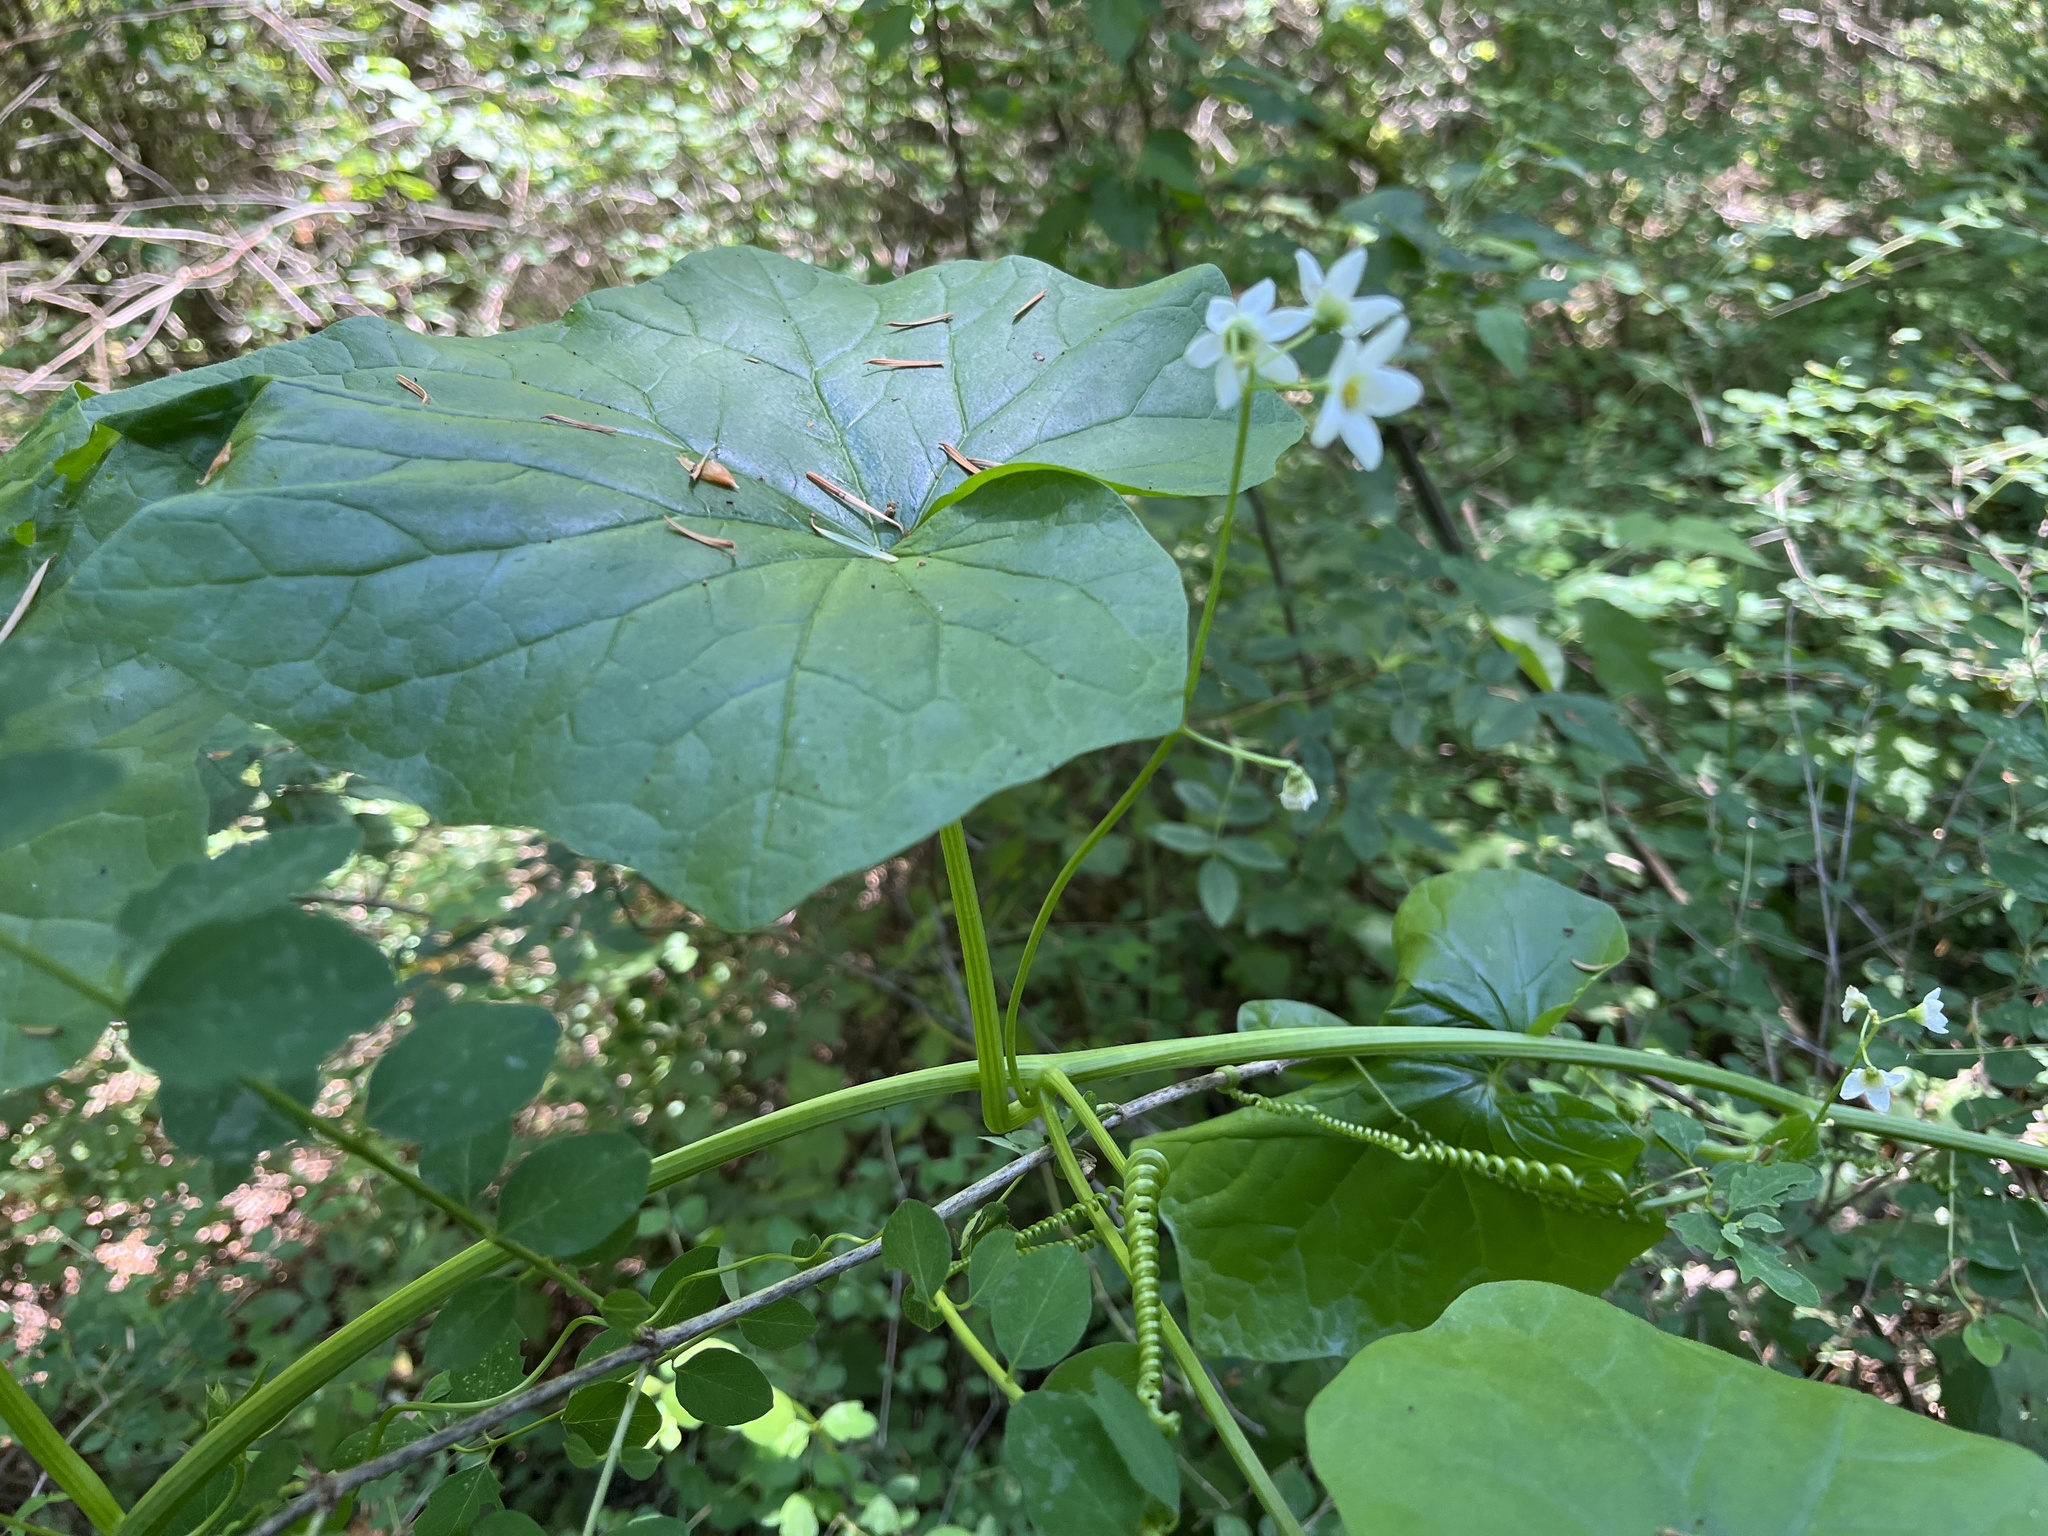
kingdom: Plantae
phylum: Tracheophyta
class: Magnoliopsida
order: Cucurbitales
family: Cucurbitaceae
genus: Marah
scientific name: Marah oregana
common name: Coastal manroot
